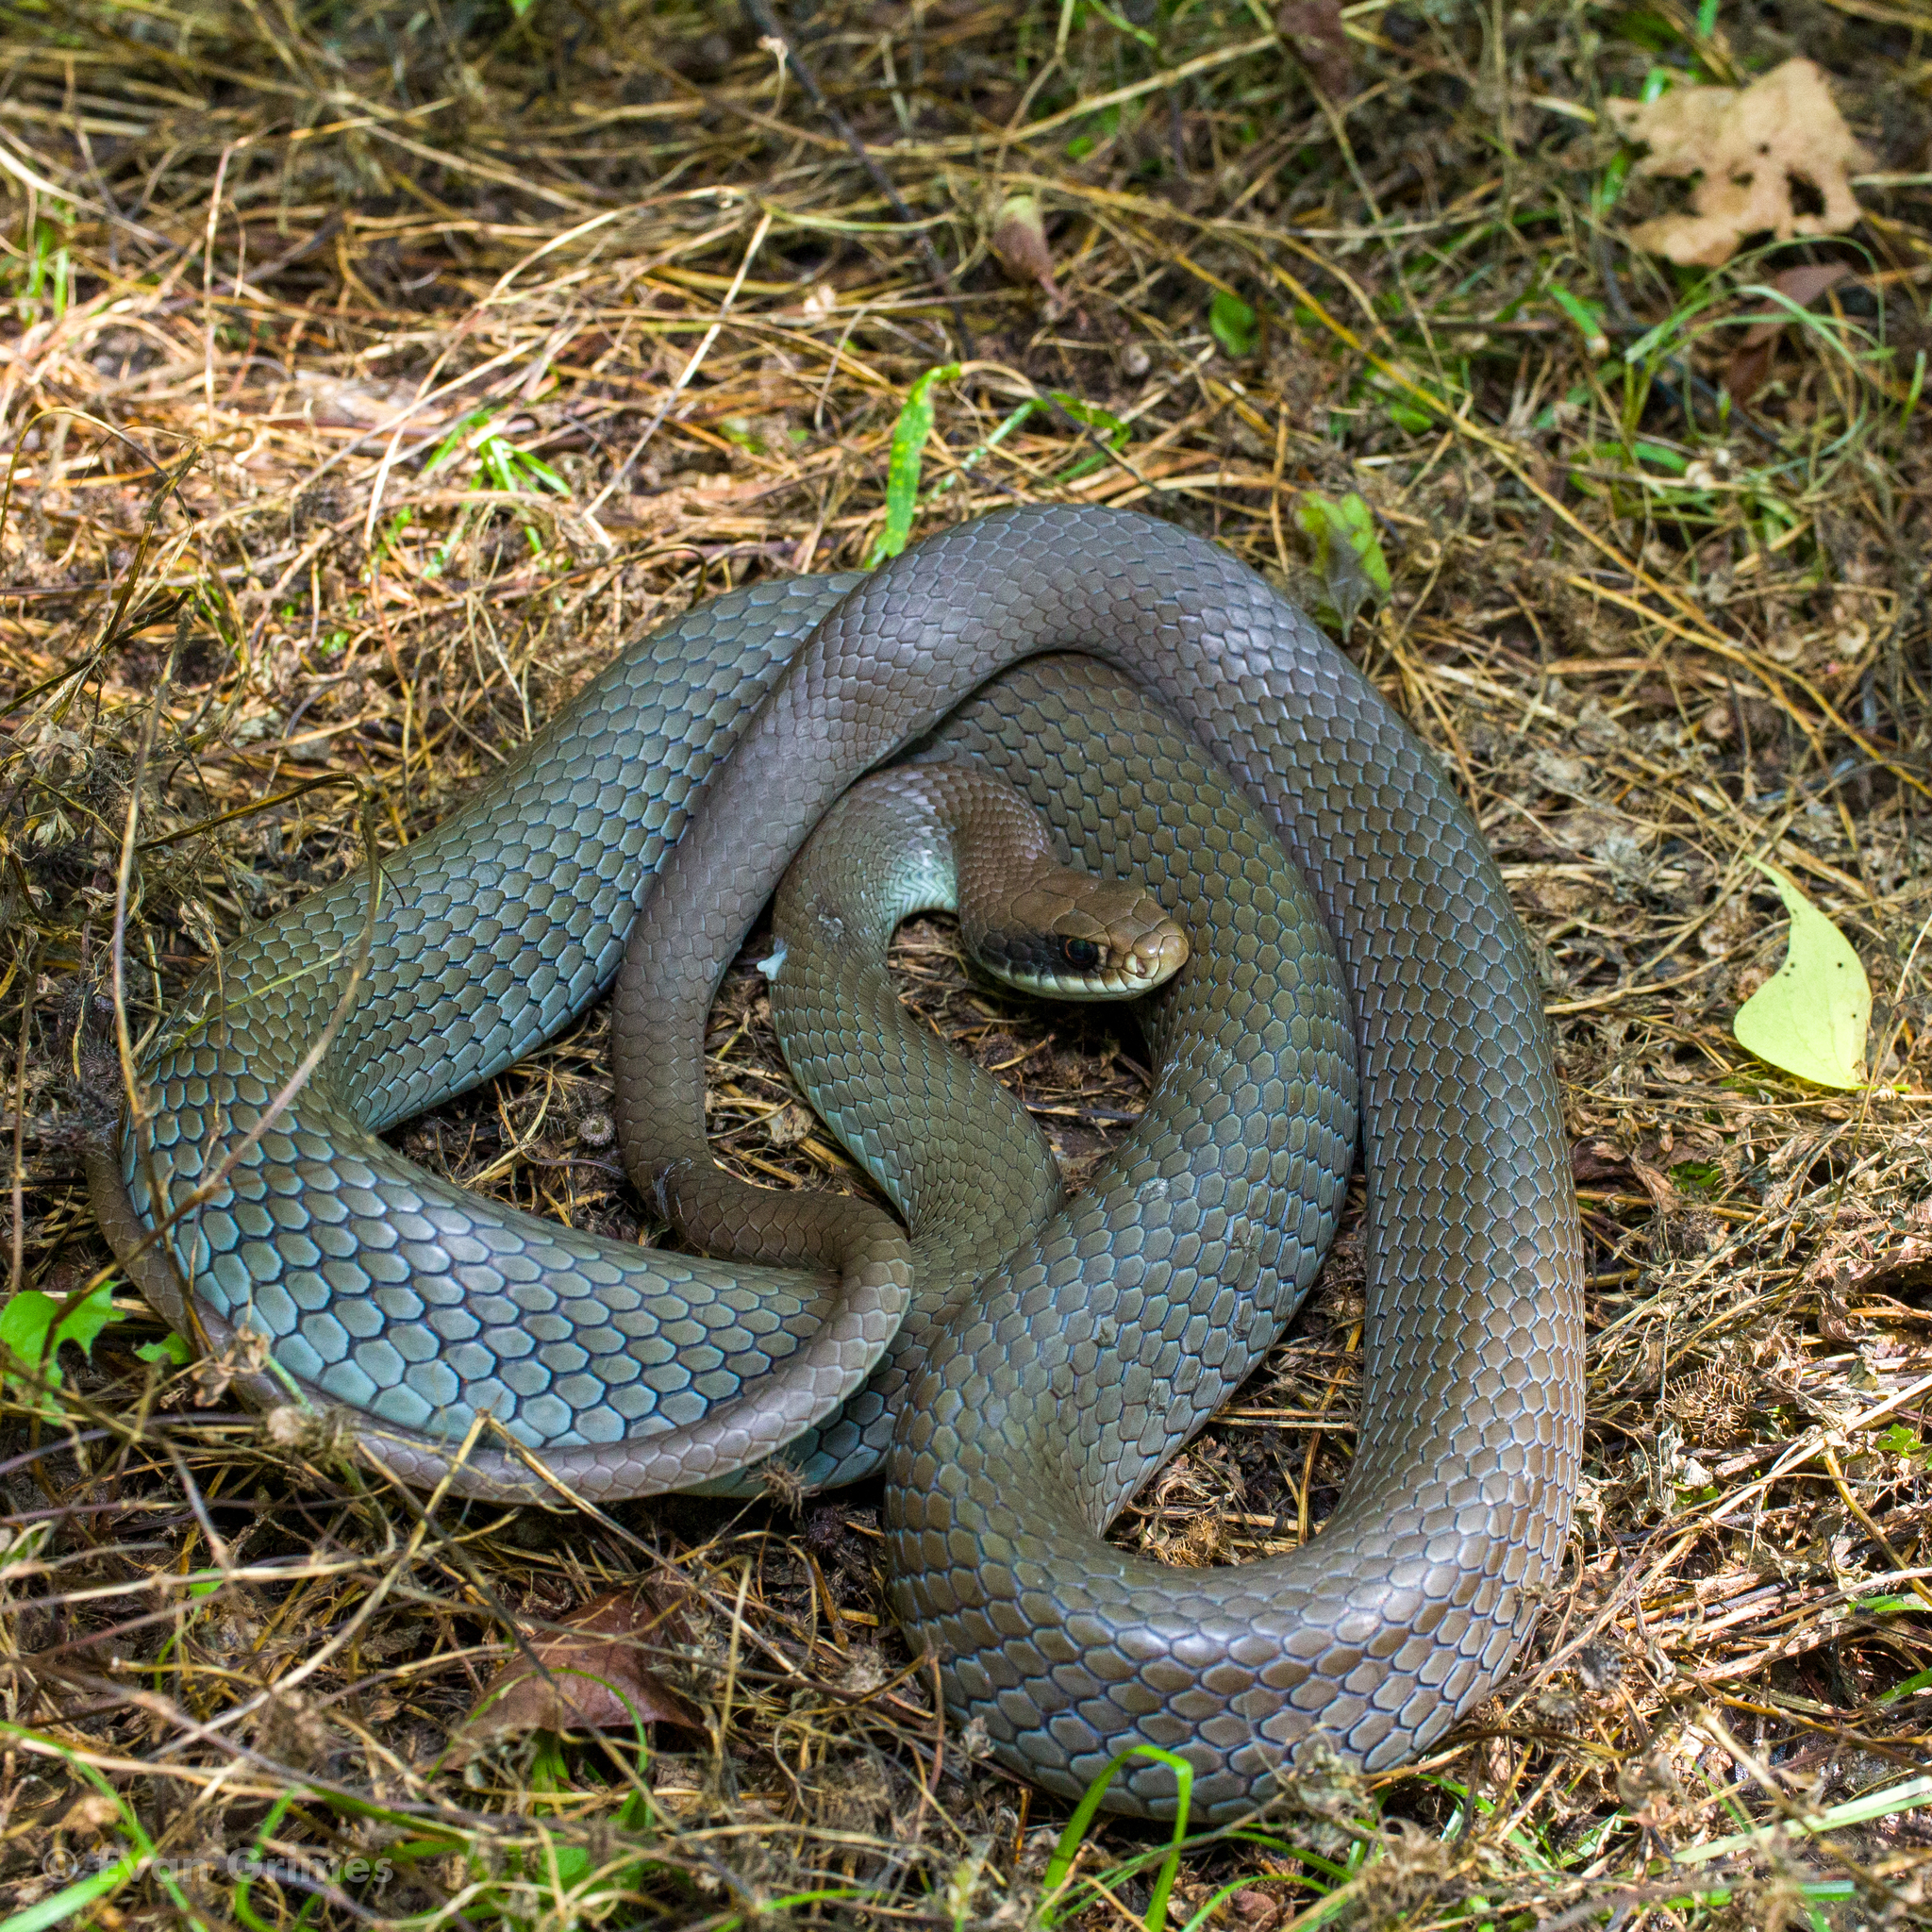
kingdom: Animalia
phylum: Chordata
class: Squamata
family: Colubridae
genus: Coluber
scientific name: Coluber constrictor
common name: Eastern racer
